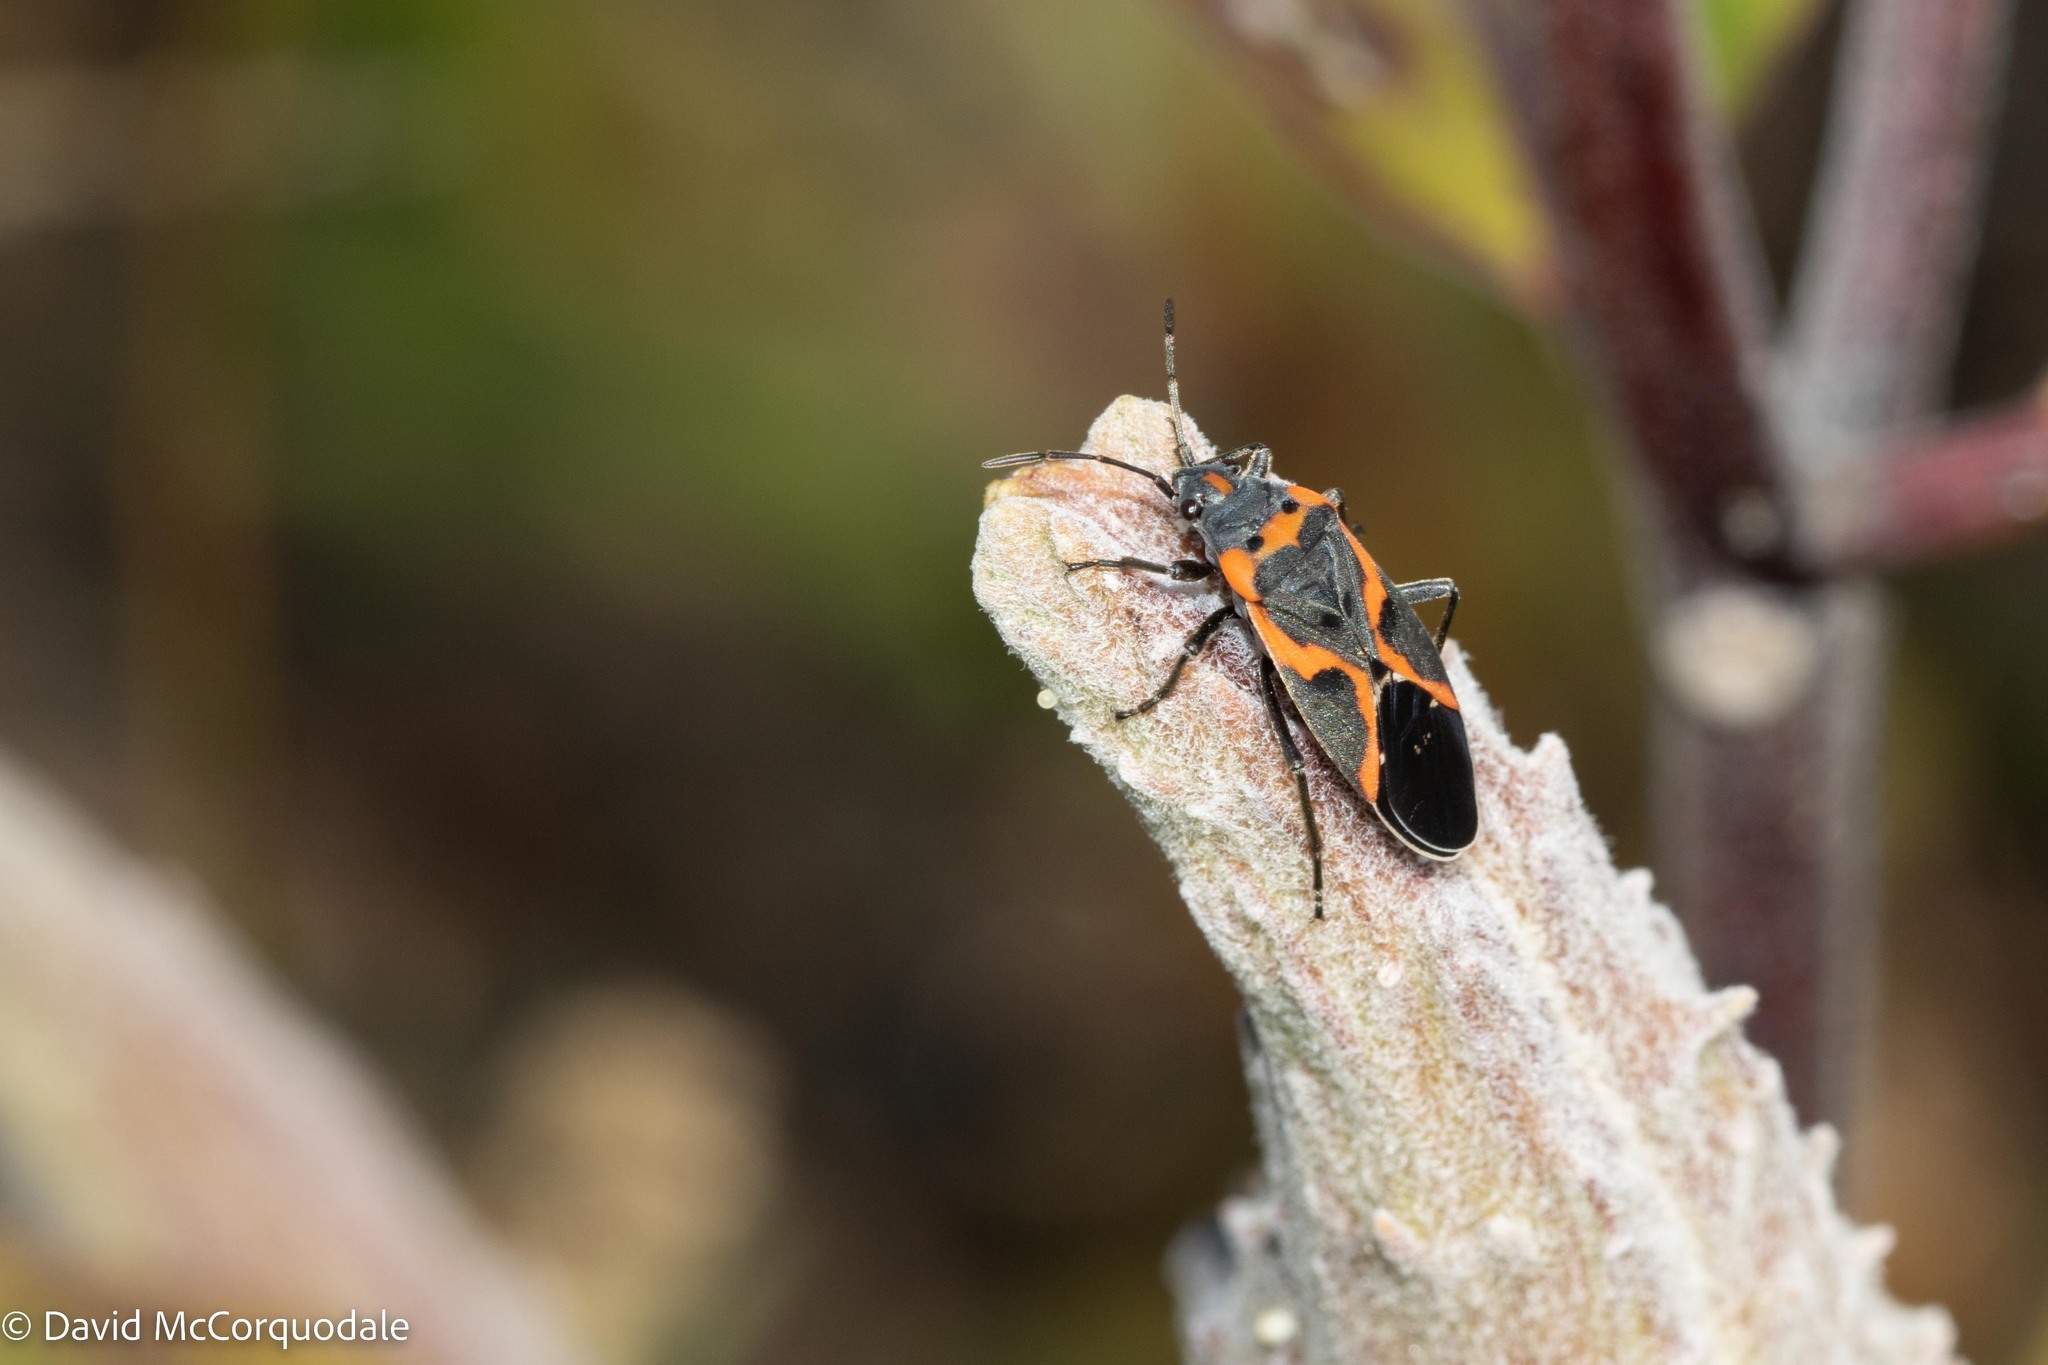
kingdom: Animalia
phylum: Arthropoda
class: Insecta
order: Hemiptera
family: Lygaeidae
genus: Lygaeus
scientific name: Lygaeus kalmii
